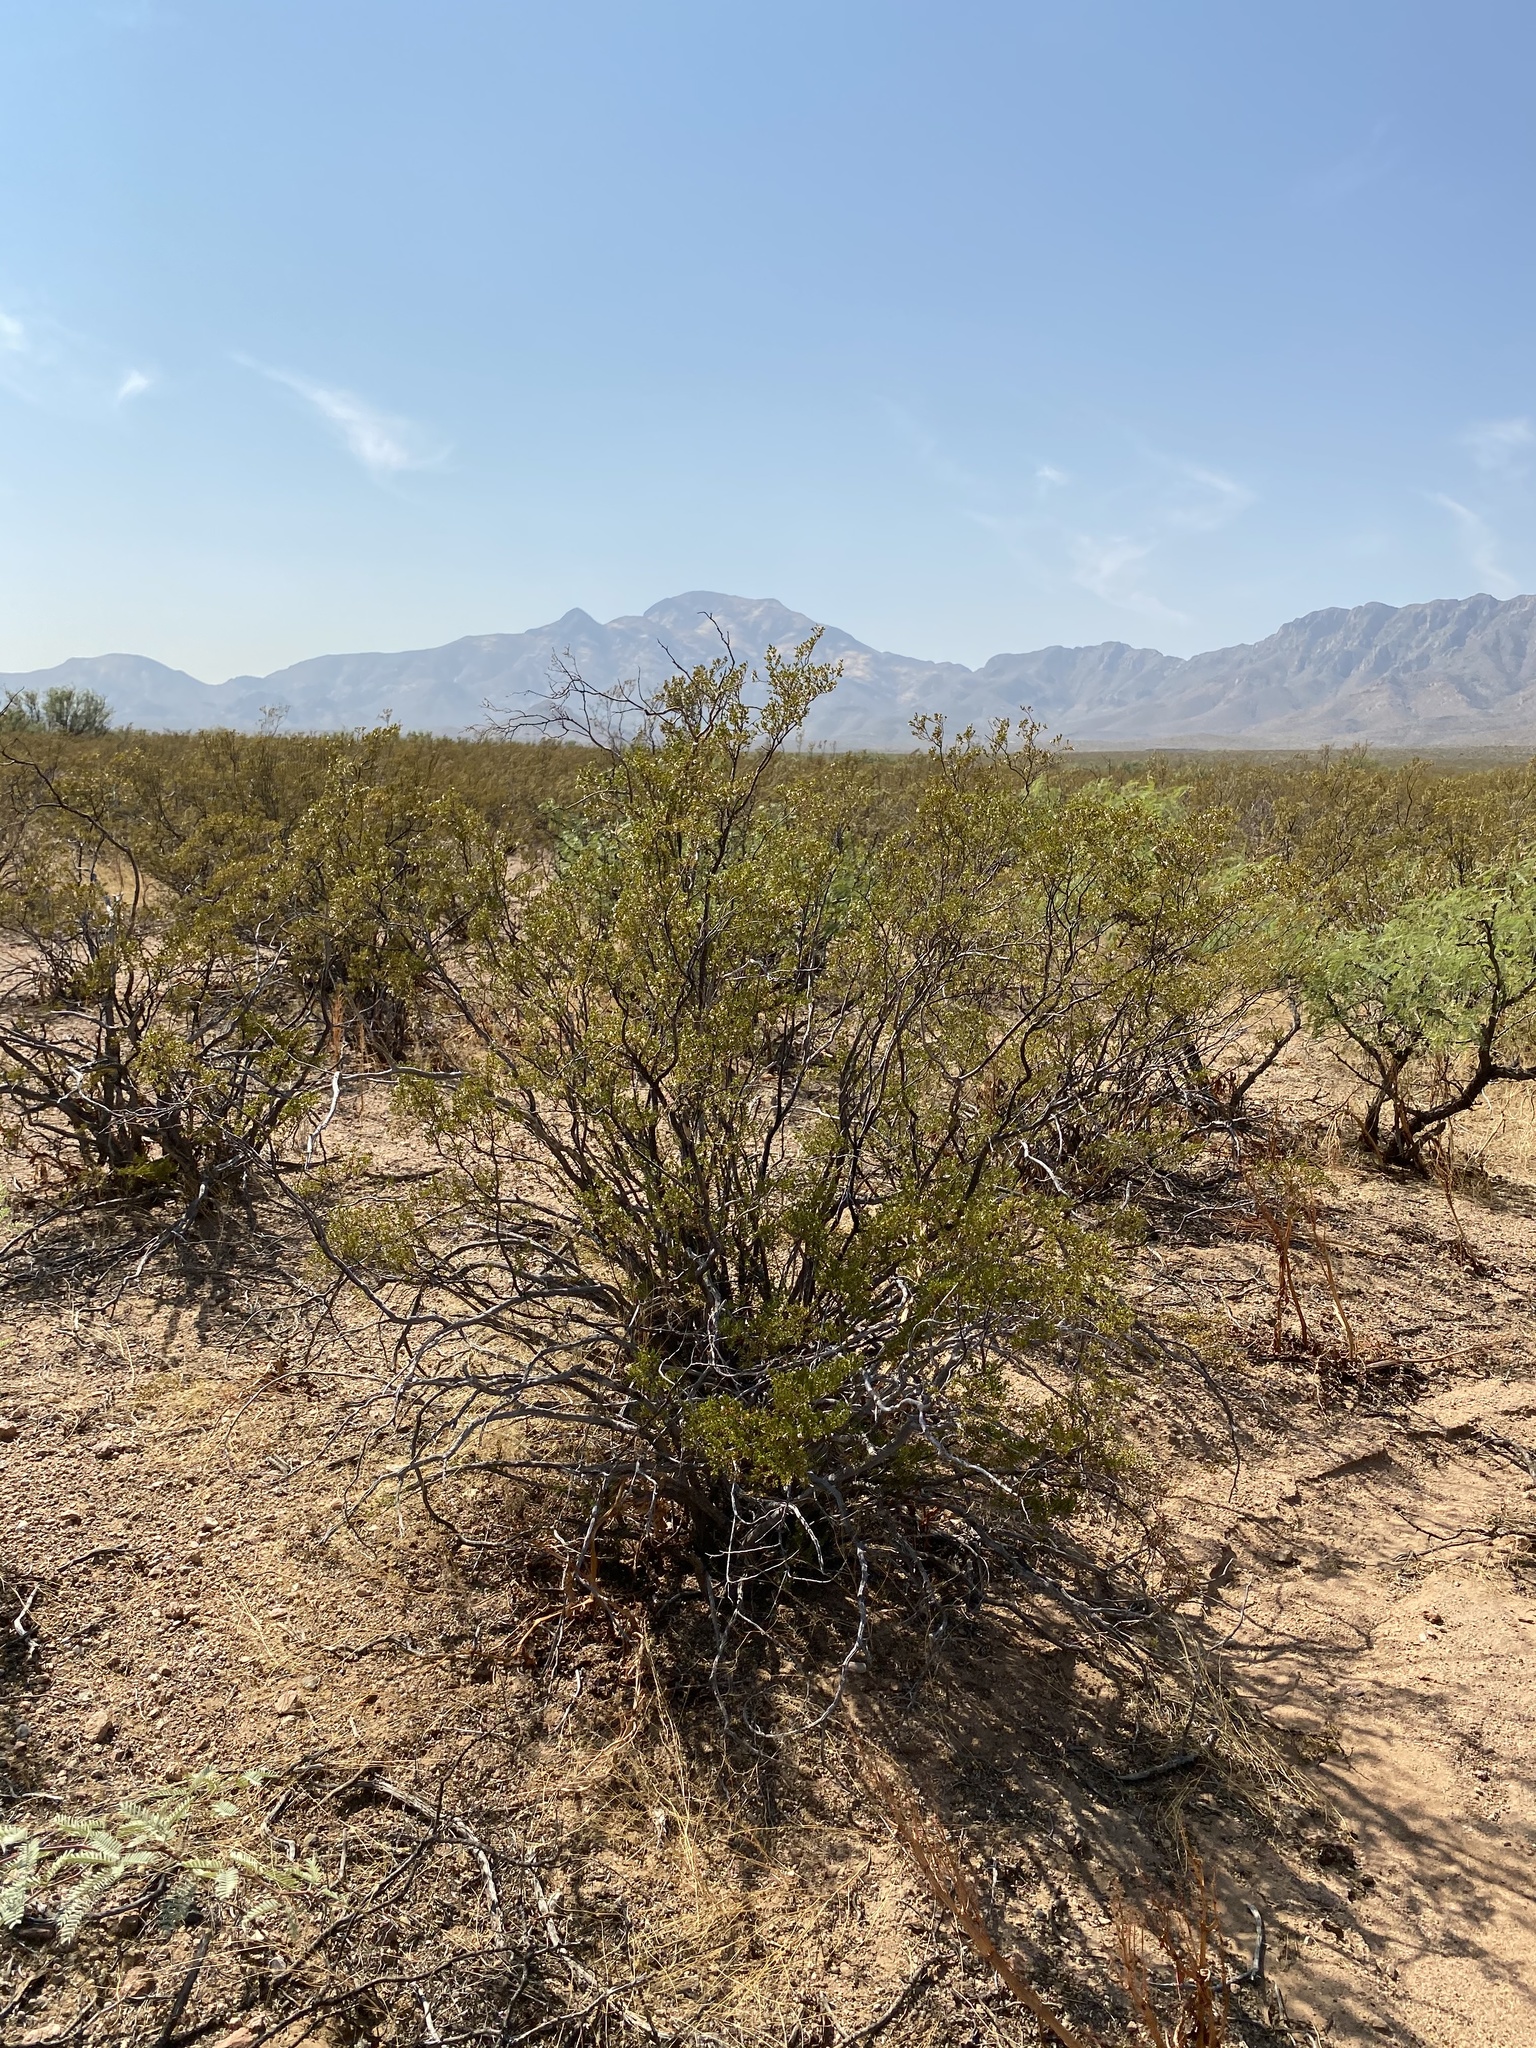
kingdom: Plantae
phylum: Tracheophyta
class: Magnoliopsida
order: Zygophyllales
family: Zygophyllaceae
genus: Larrea
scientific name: Larrea tridentata
